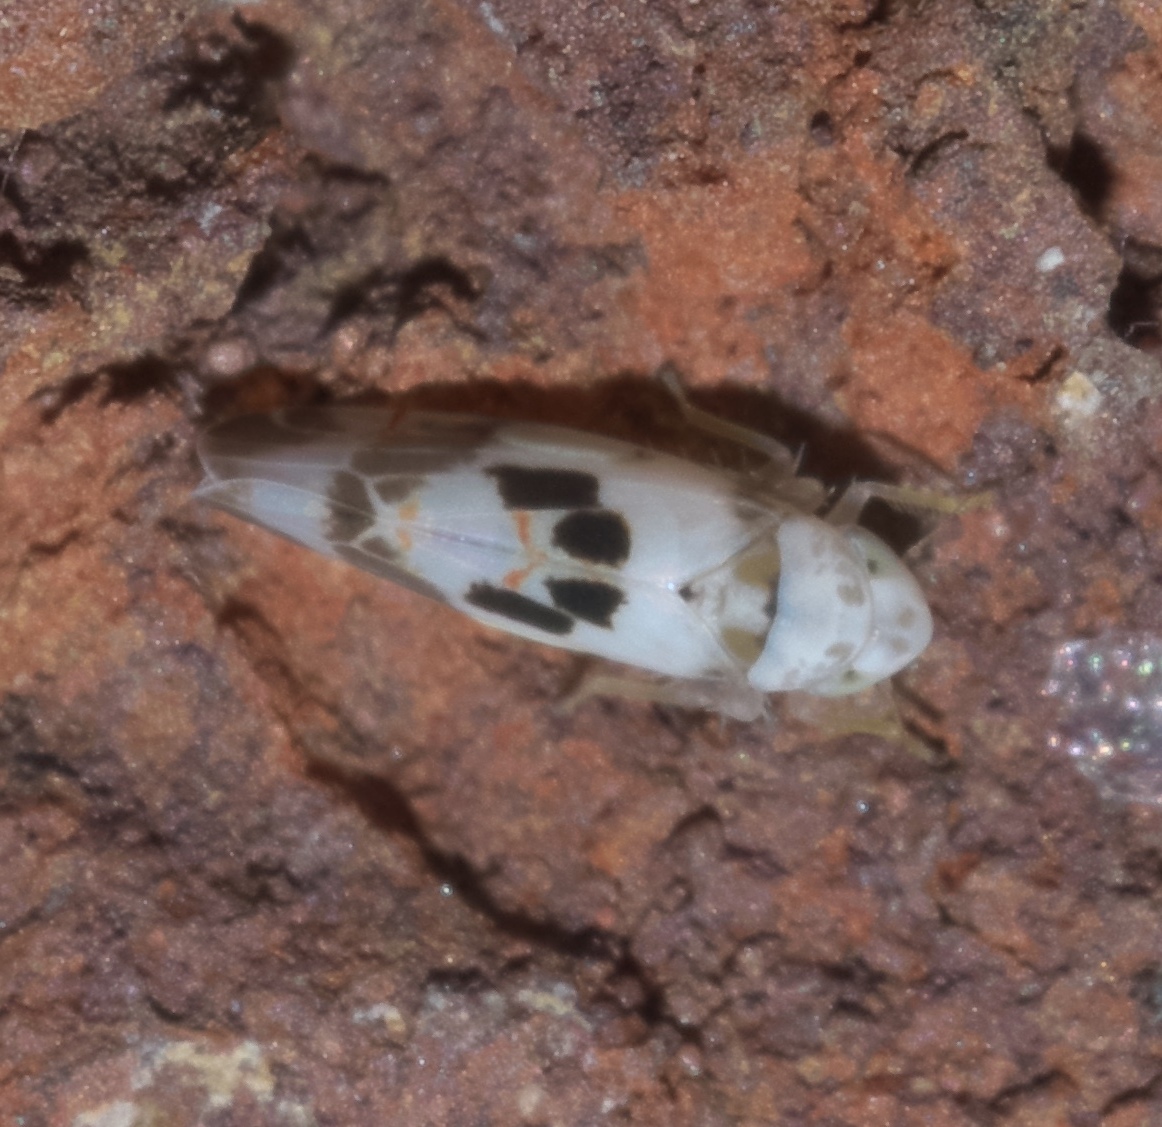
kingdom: Animalia
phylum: Arthropoda
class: Insecta
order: Hemiptera
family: Cicadellidae
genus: Eratoneura
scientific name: Eratoneura hymettana
